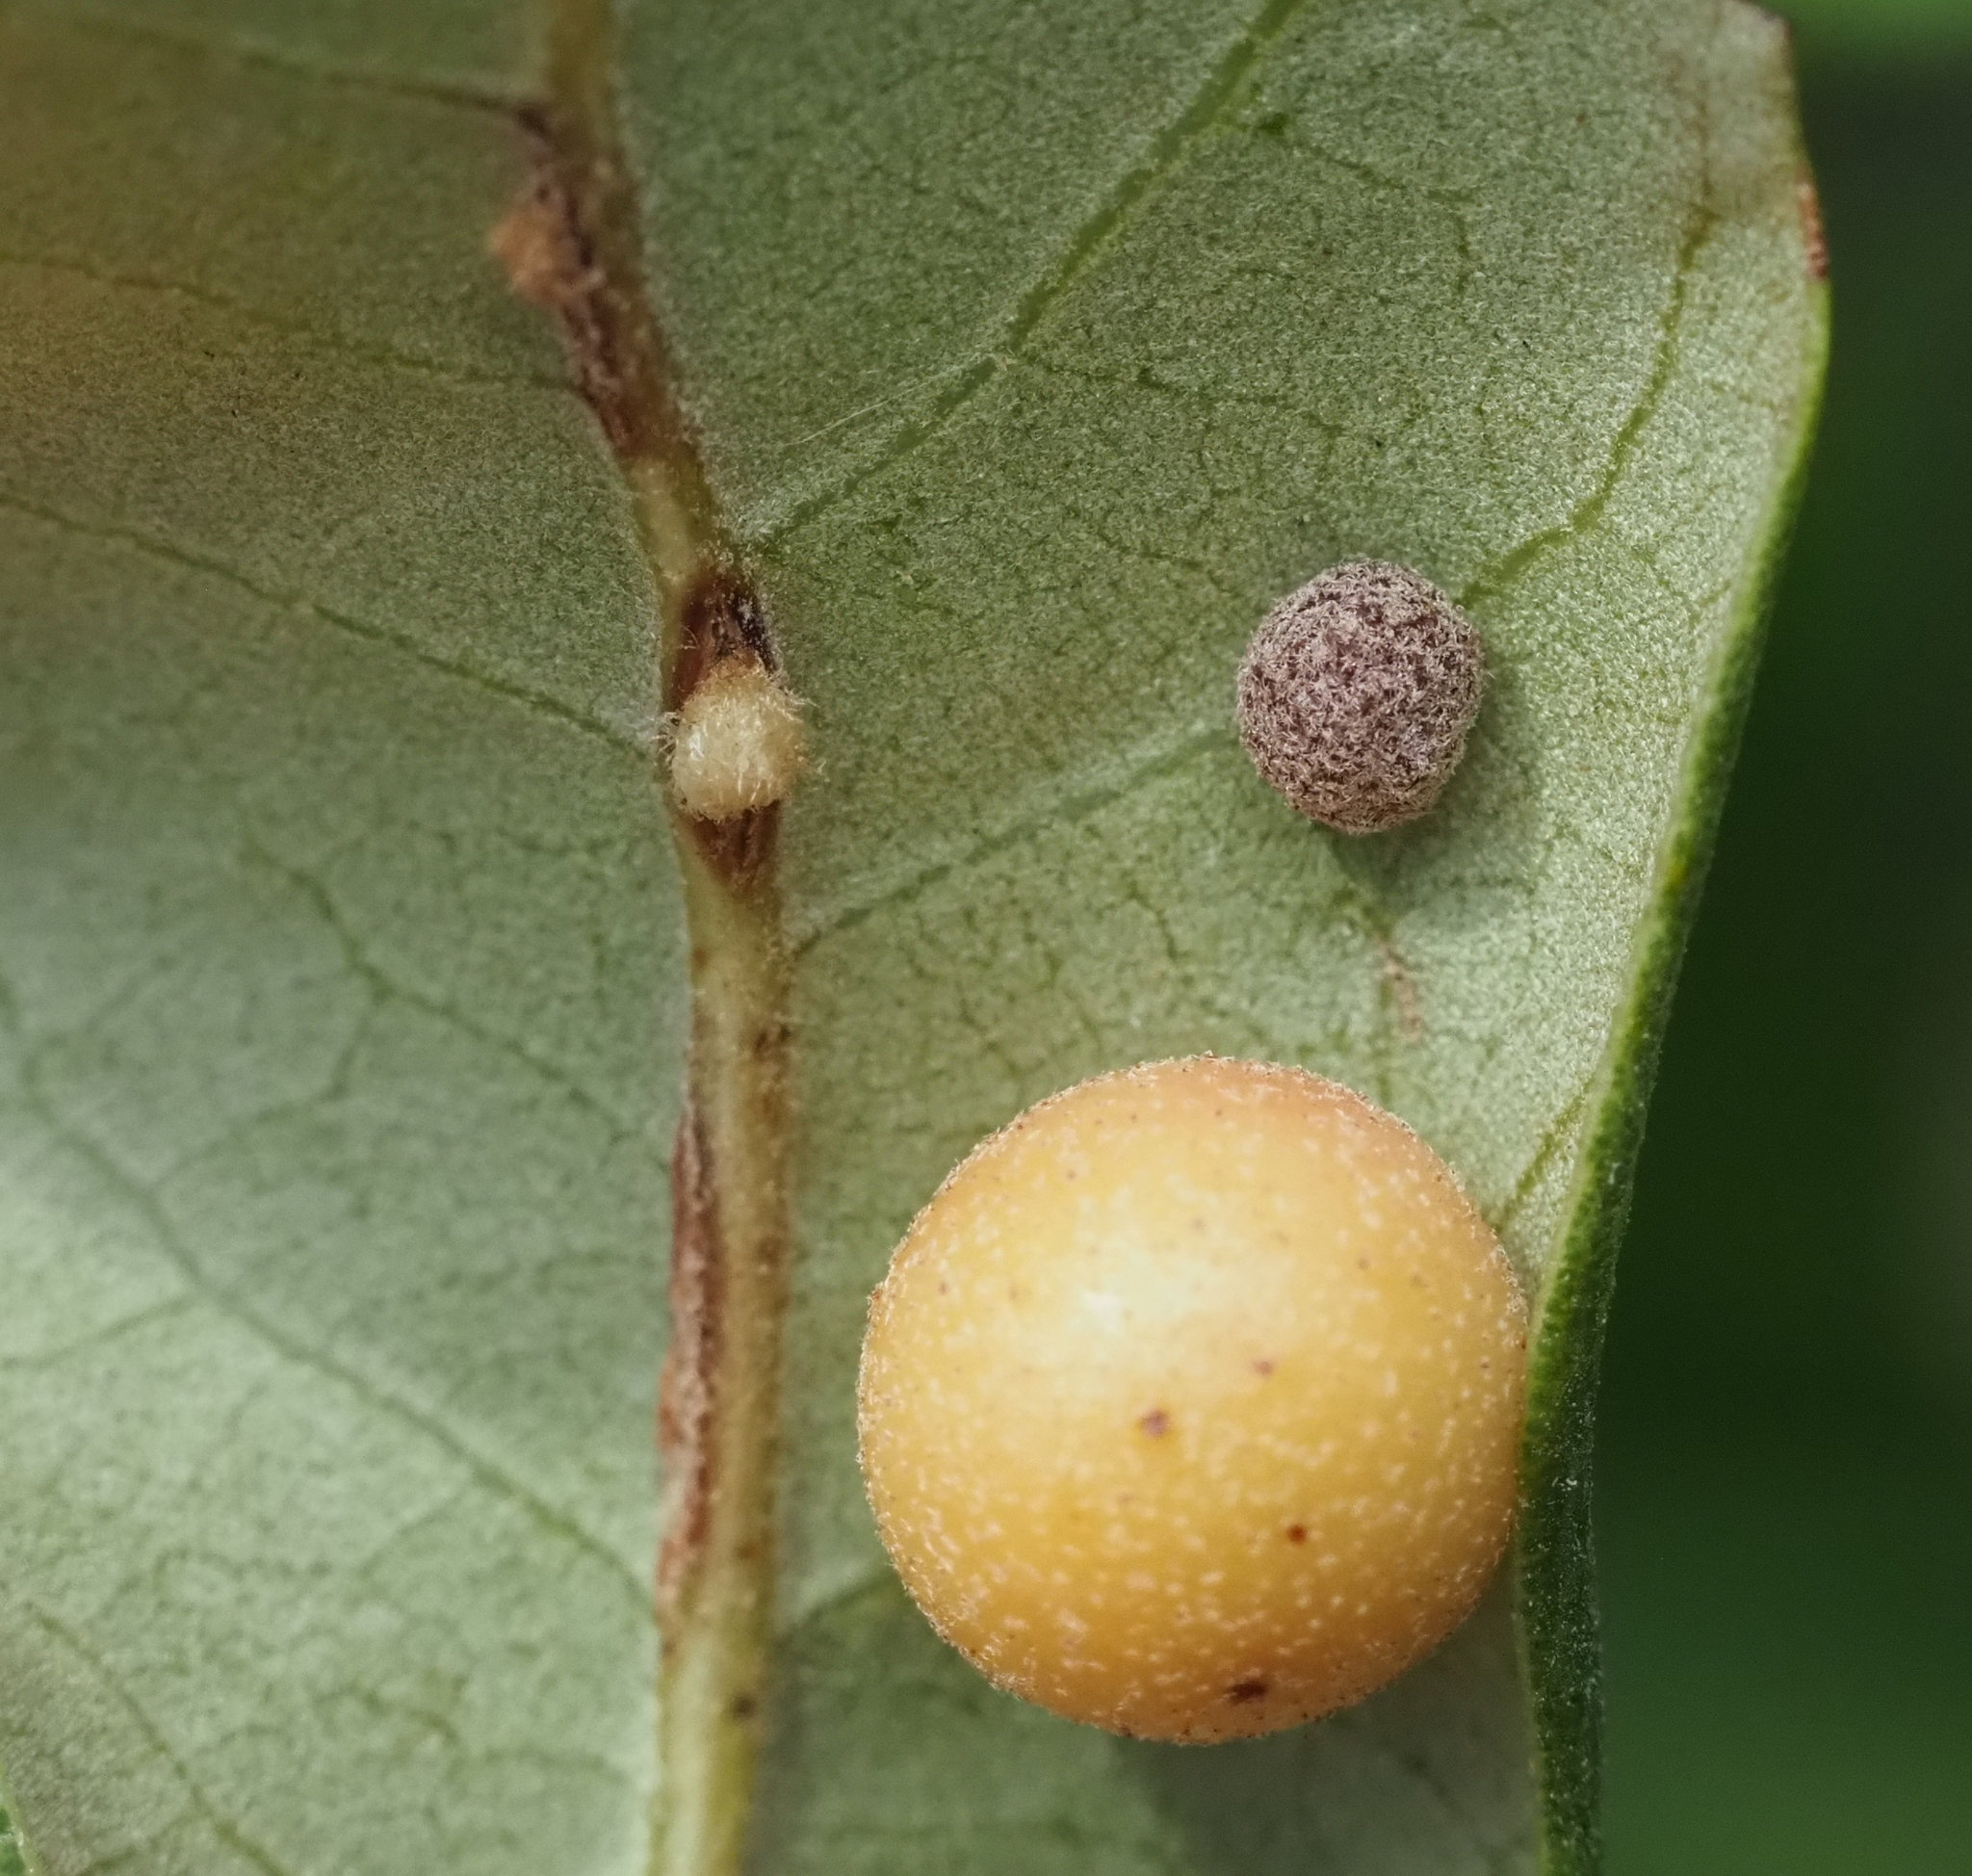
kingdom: Animalia
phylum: Arthropoda
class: Insecta
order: Hymenoptera
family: Cynipidae
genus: Belonocnema
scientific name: Belonocnema kinseyi
